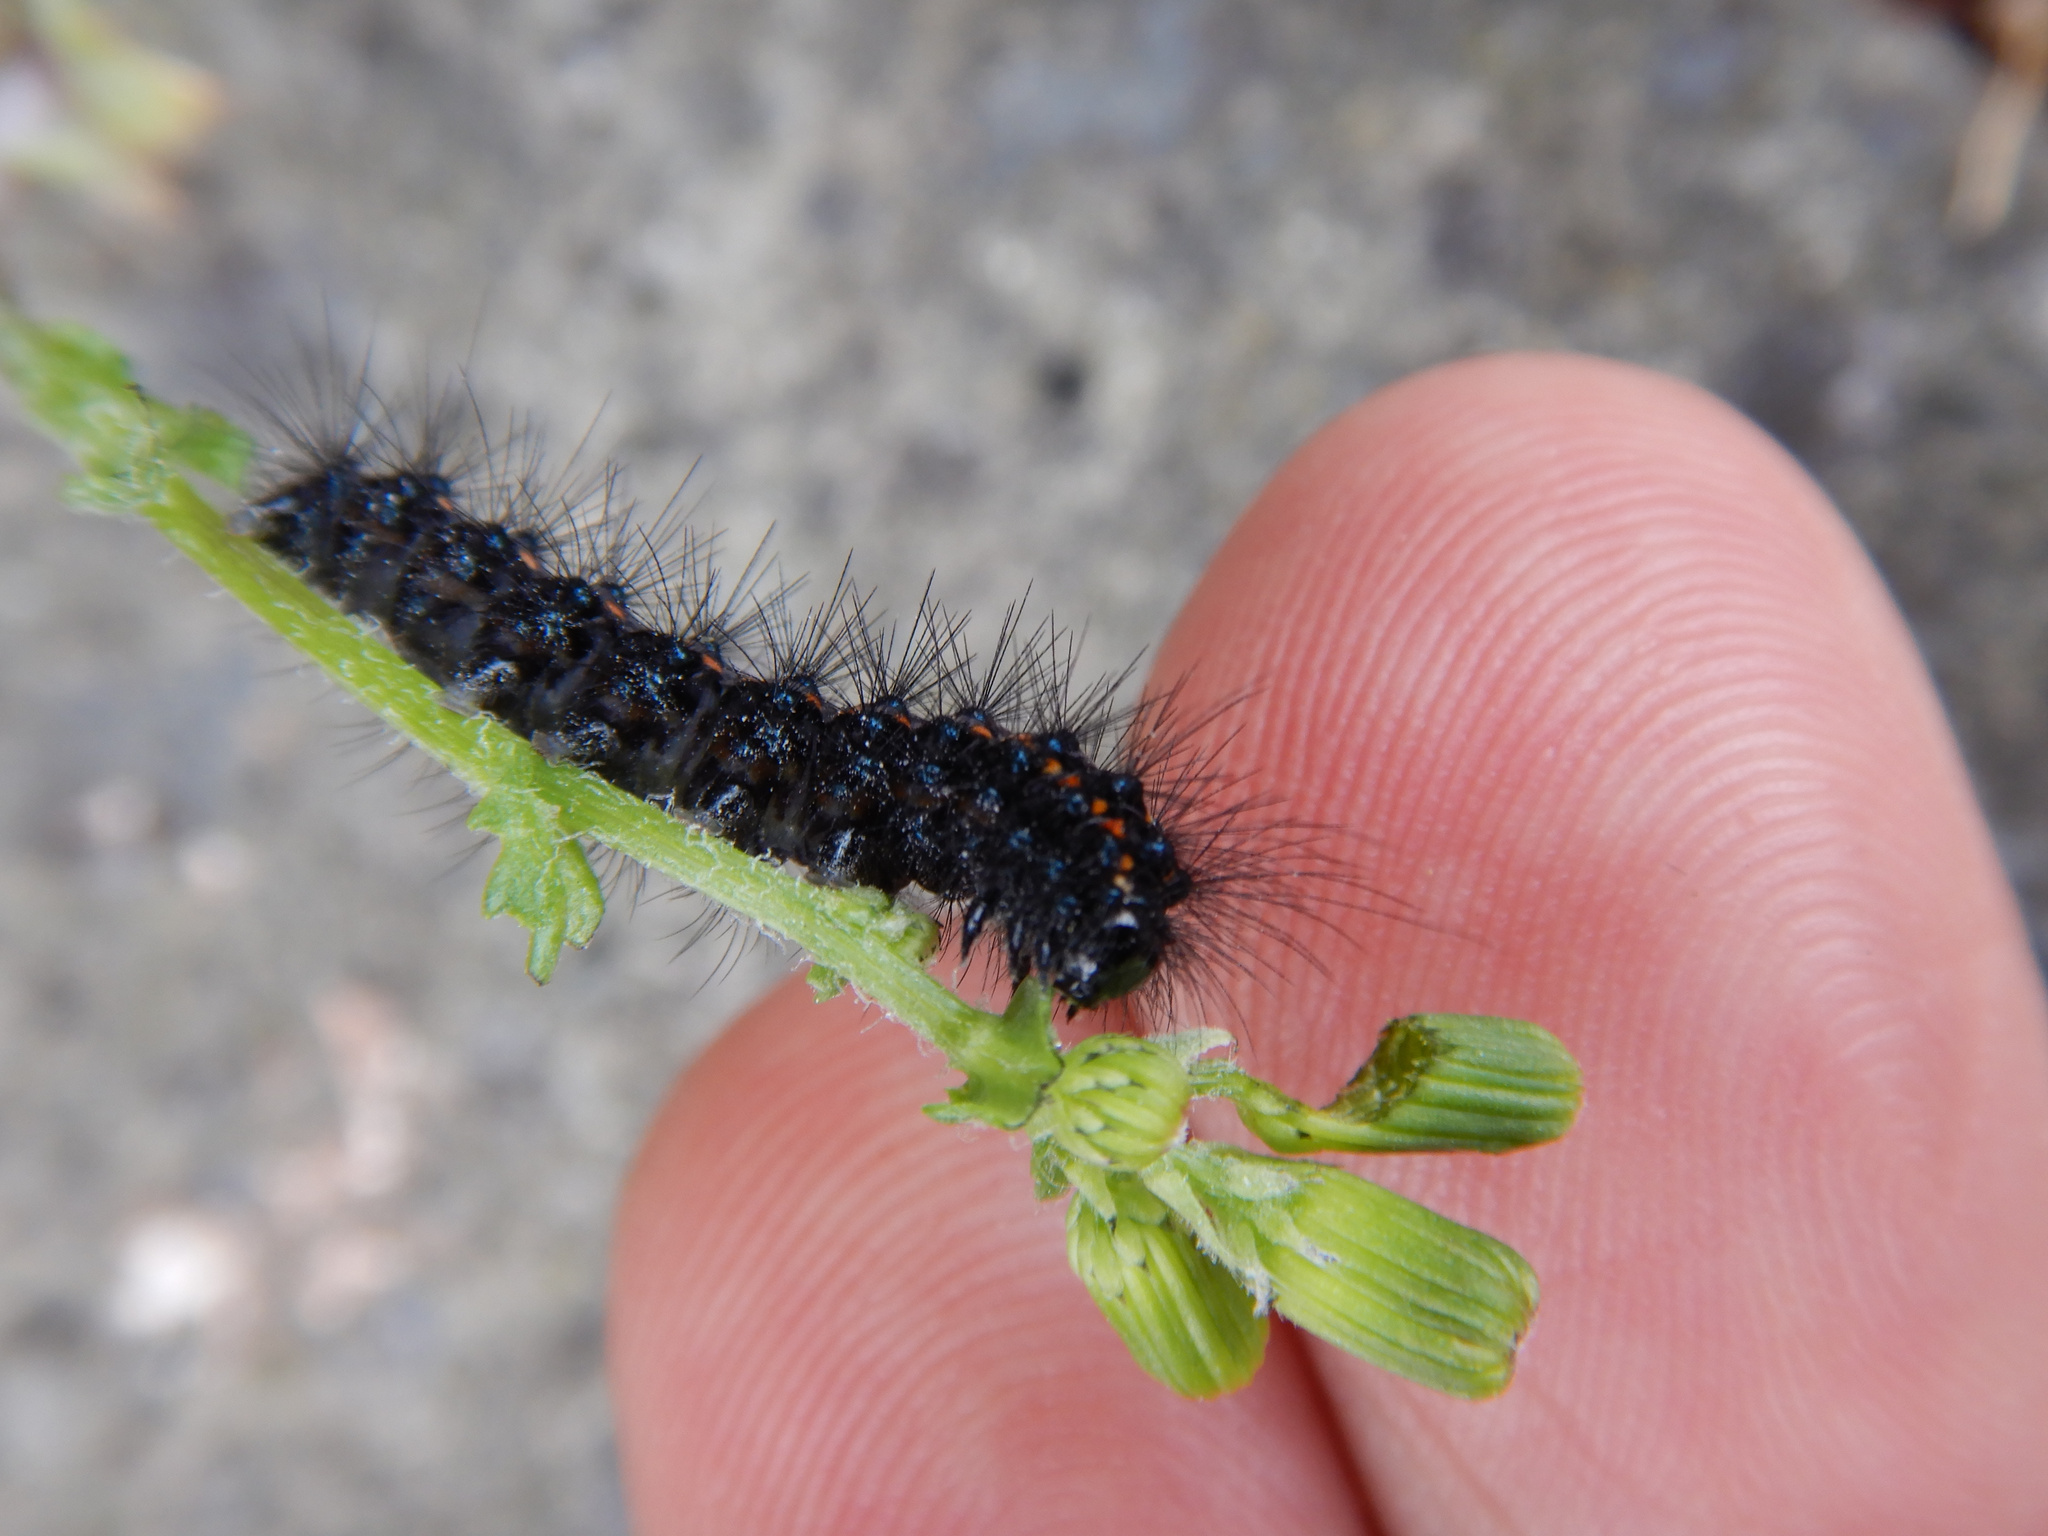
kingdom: Animalia
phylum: Arthropoda
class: Insecta
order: Lepidoptera
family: Erebidae
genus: Nyctemera
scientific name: Nyctemera annulatum
